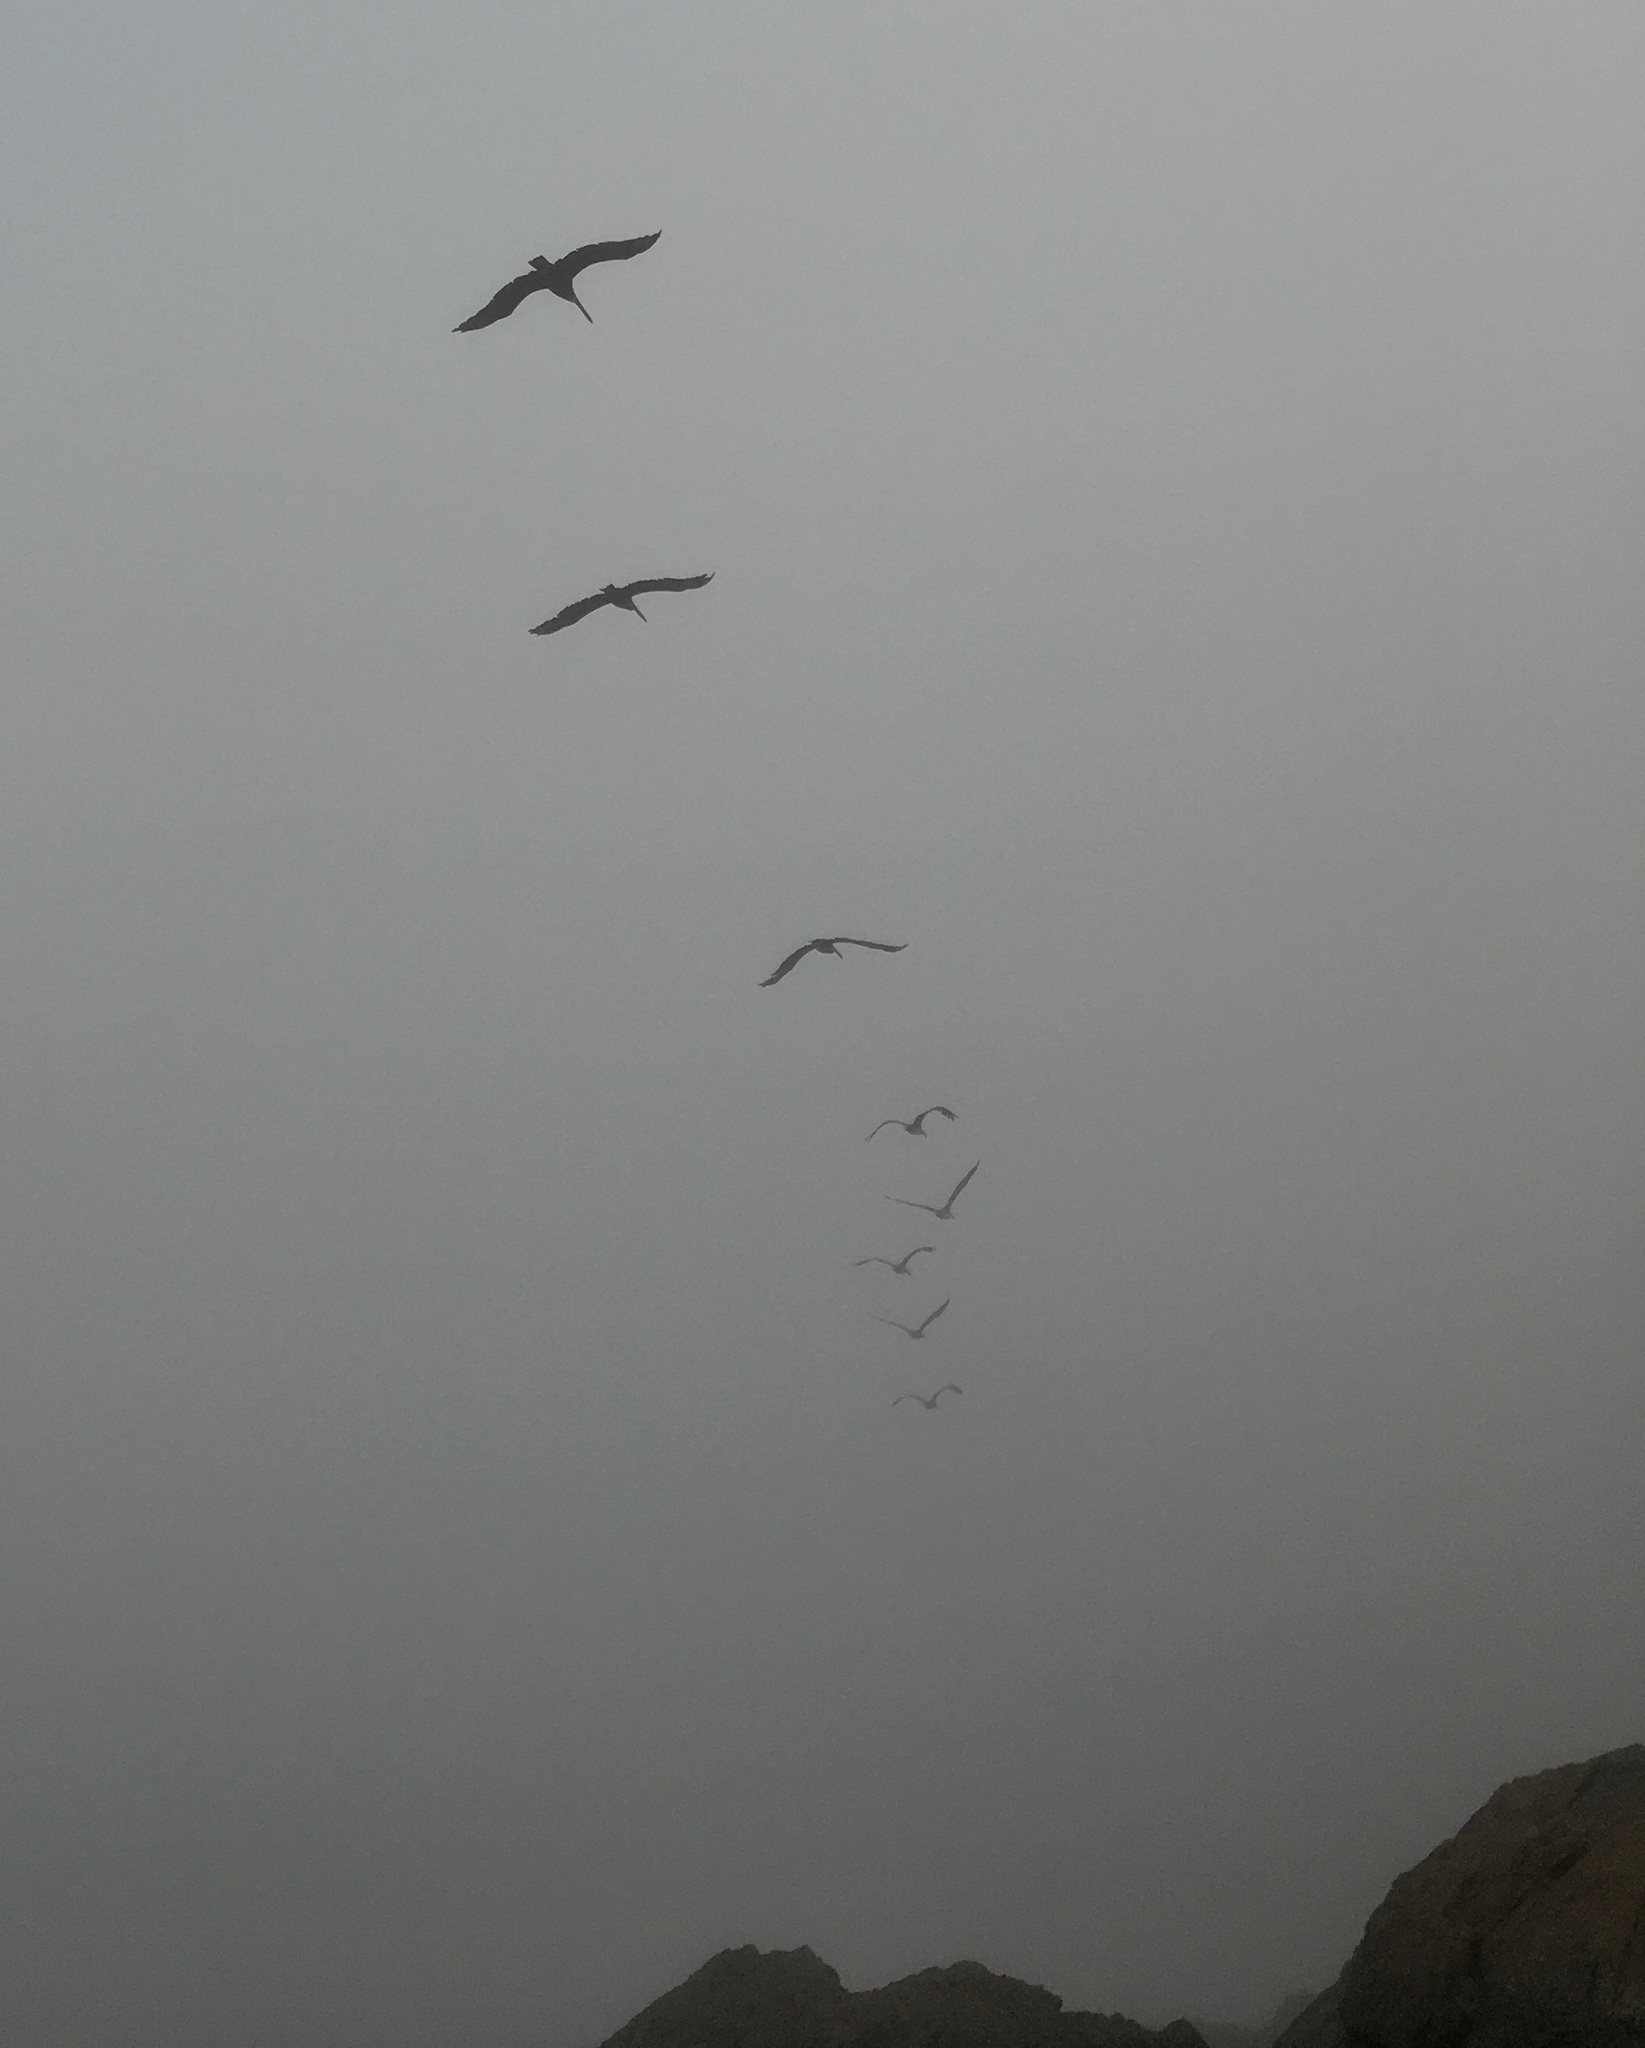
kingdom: Animalia
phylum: Chordata
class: Aves
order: Pelecaniformes
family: Pelecanidae
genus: Pelecanus
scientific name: Pelecanus occidentalis
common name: Brown pelican
